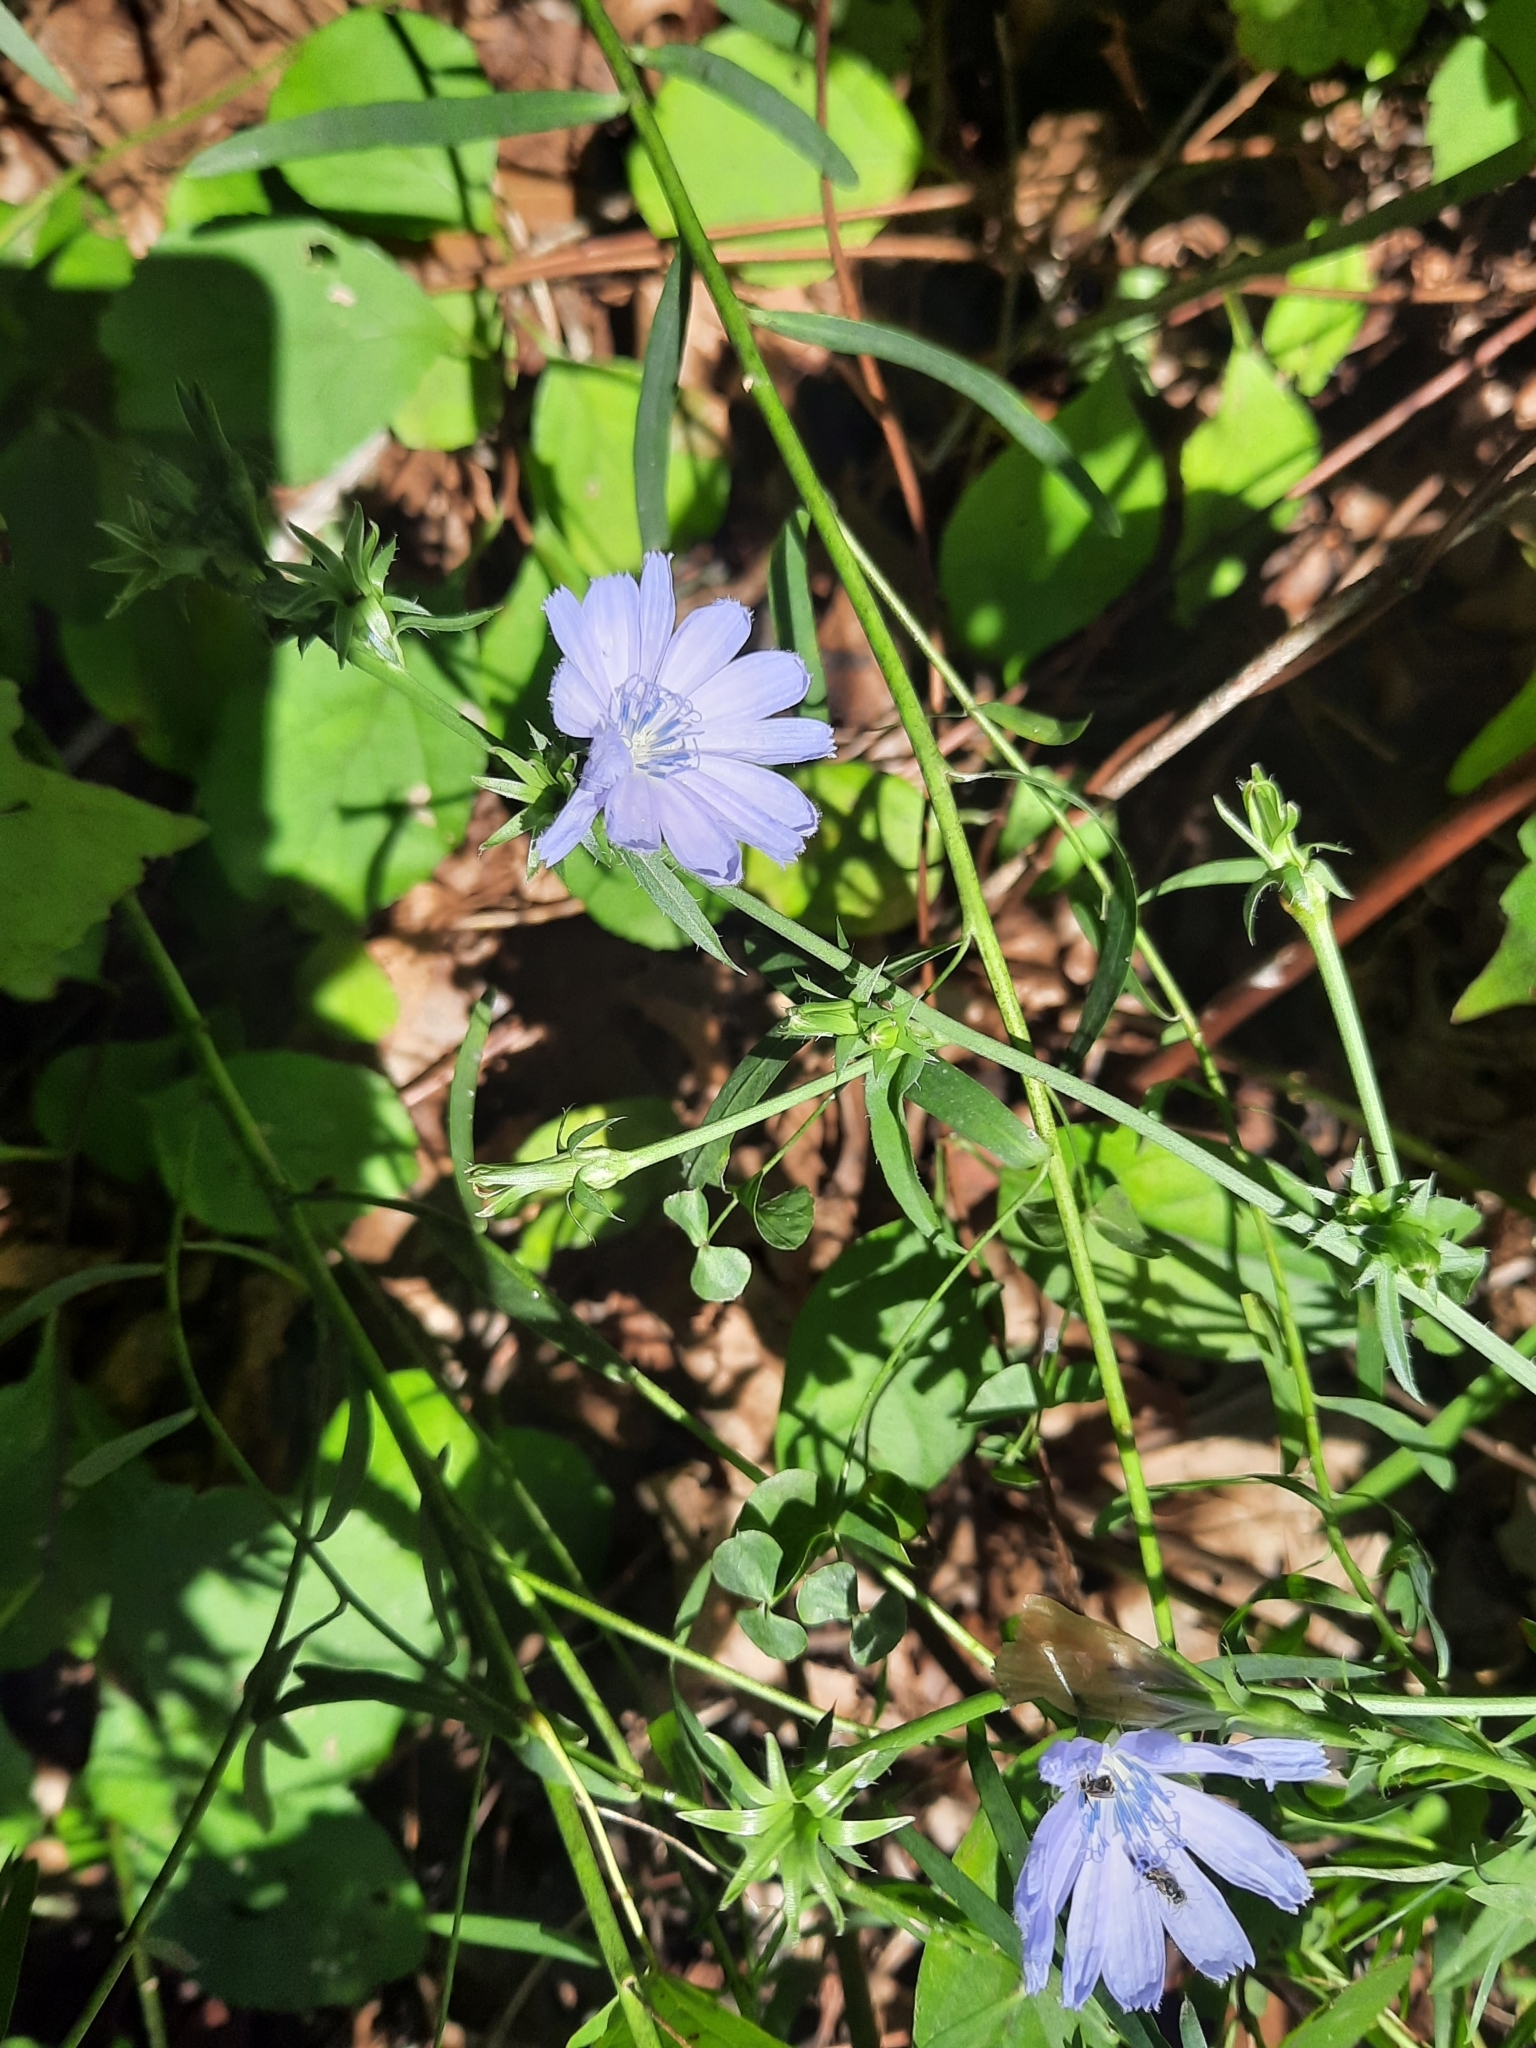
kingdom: Plantae
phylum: Tracheophyta
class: Magnoliopsida
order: Asterales
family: Asteraceae
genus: Cichorium
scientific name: Cichorium intybus
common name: Chicory
